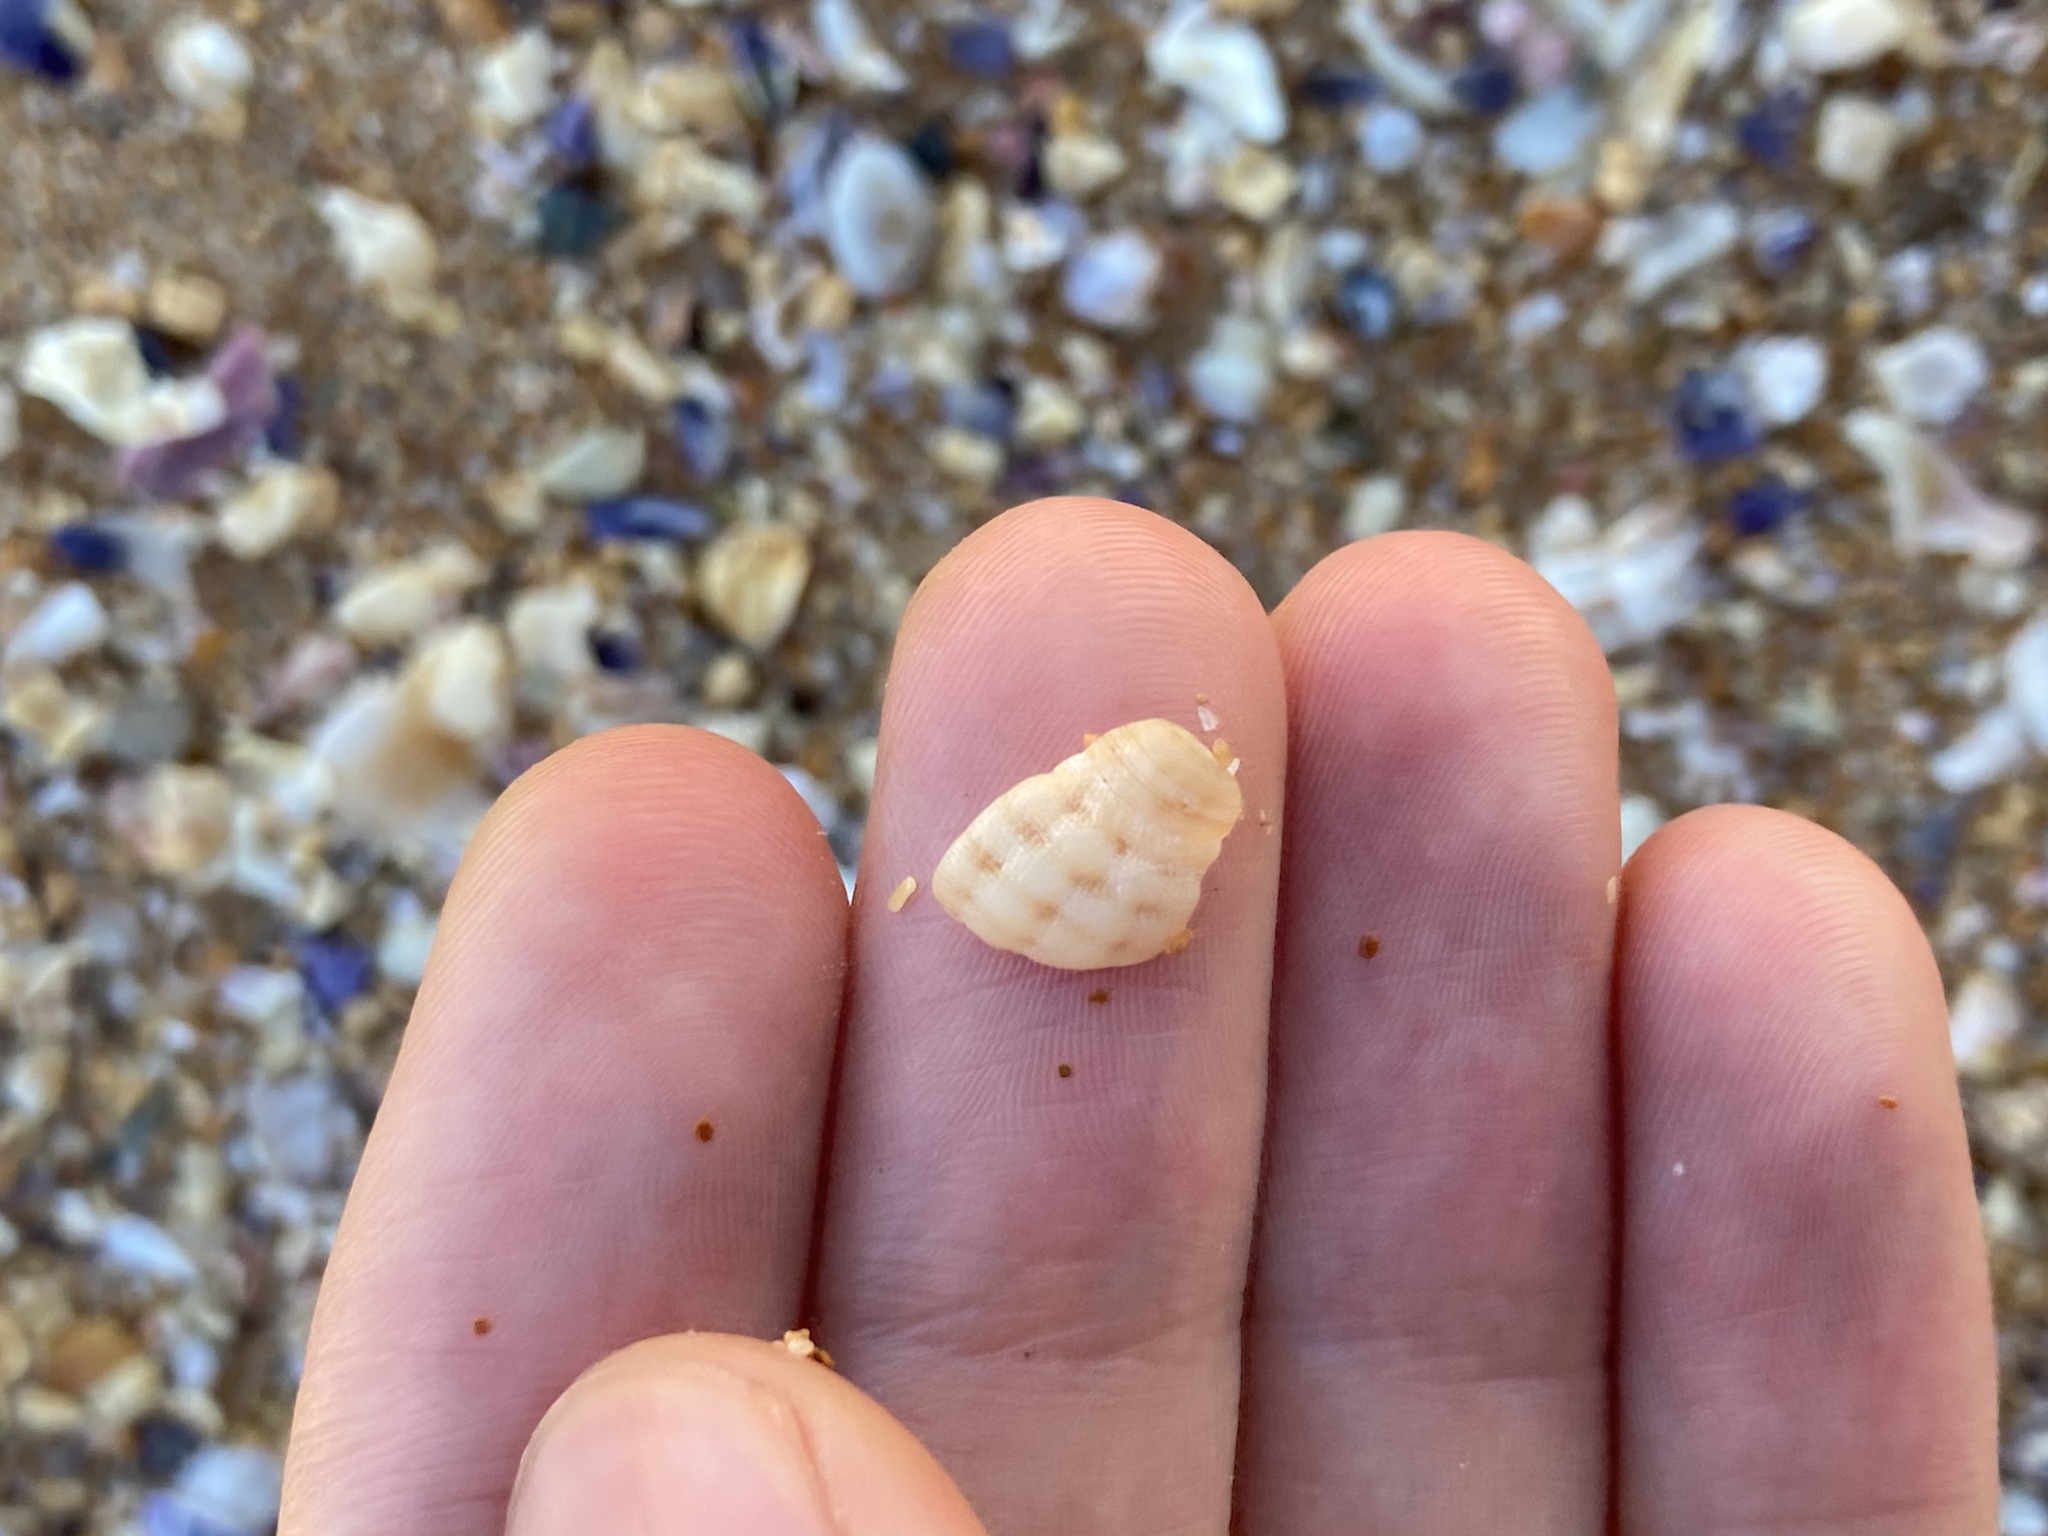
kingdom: Animalia
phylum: Mollusca
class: Gastropoda
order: Neogastropoda
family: Muricidae
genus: Agnewia
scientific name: Agnewia tritoniformis
